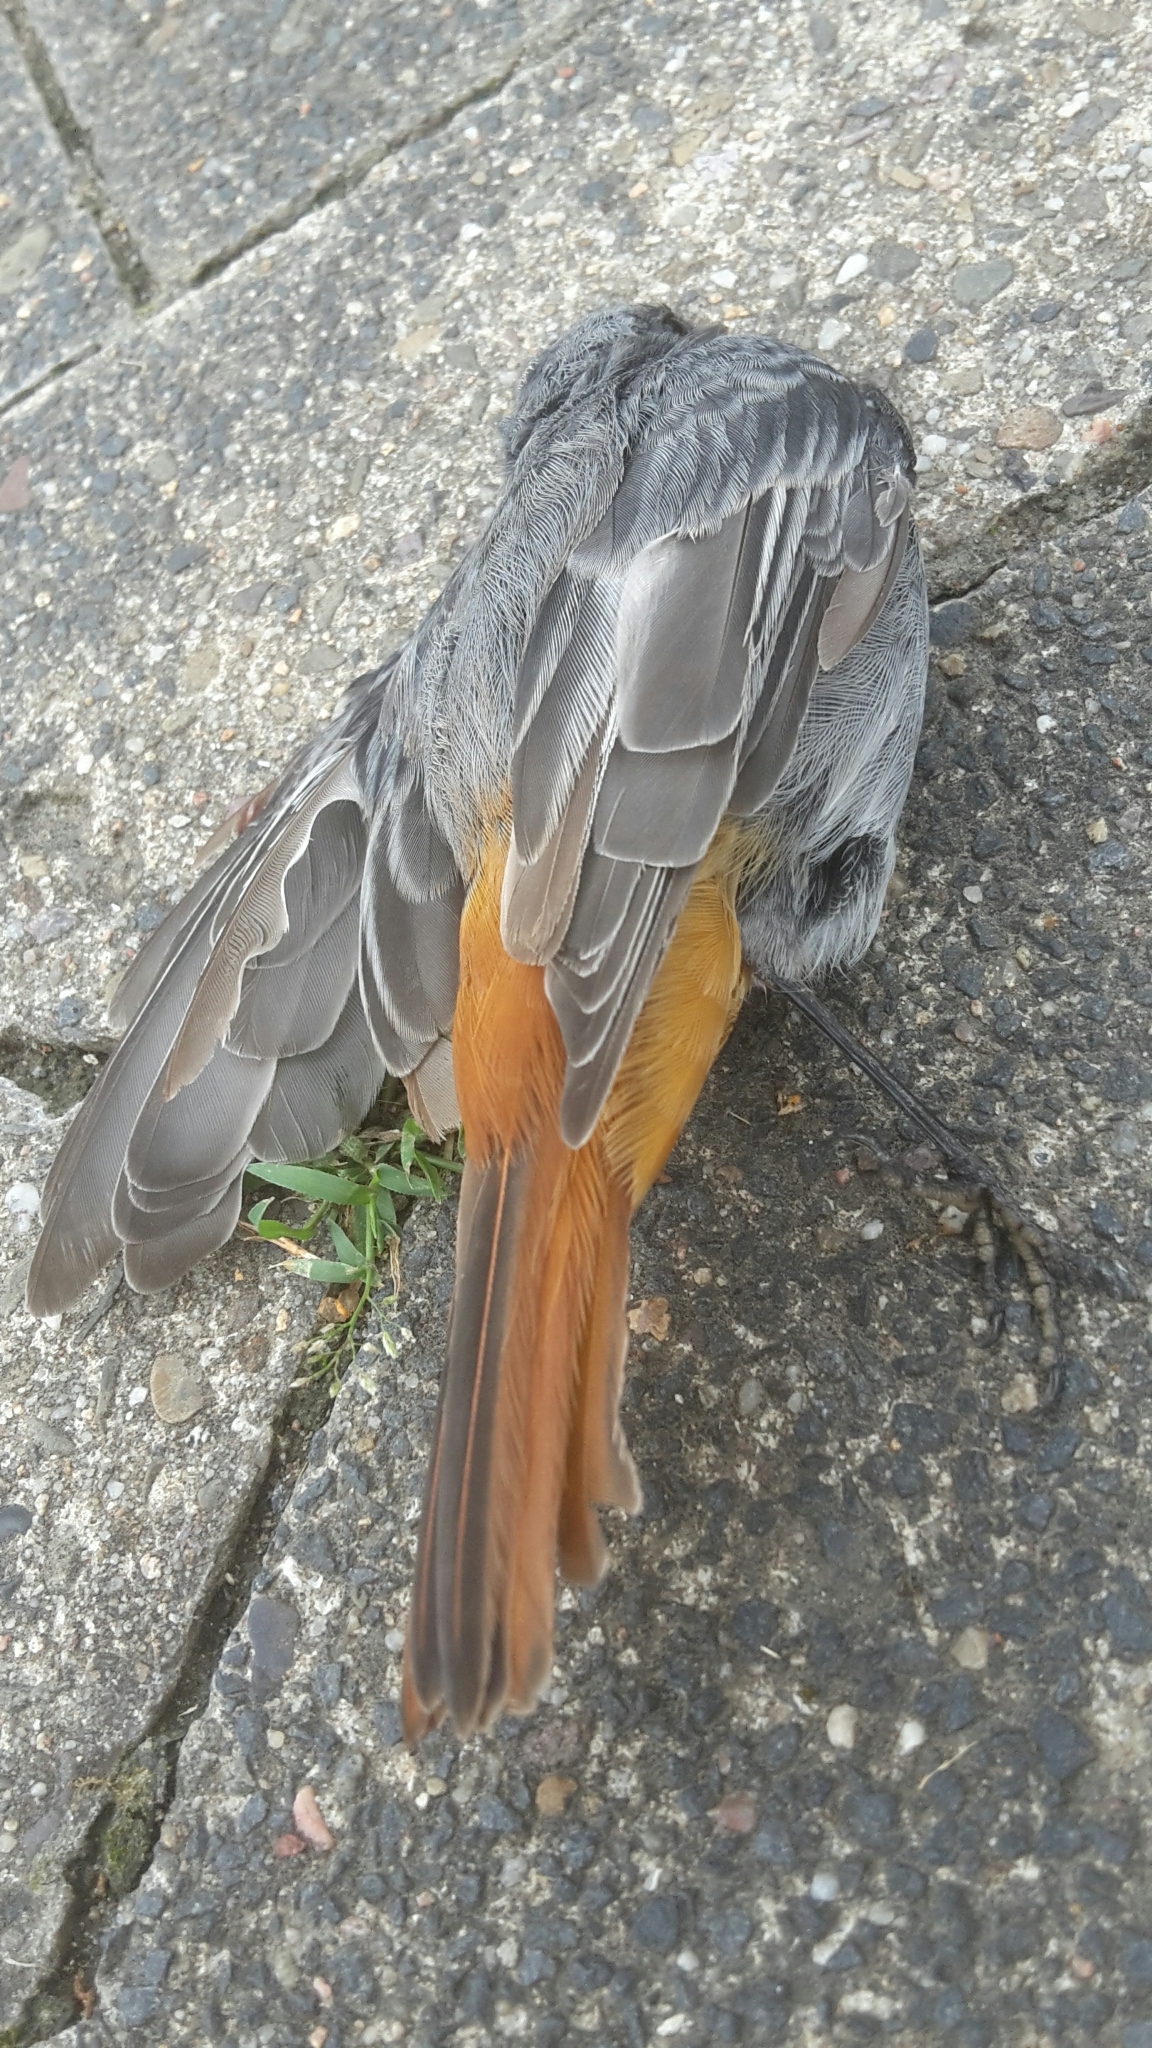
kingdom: Animalia
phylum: Chordata
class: Aves
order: Passeriformes
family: Muscicapidae
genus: Phoenicurus
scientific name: Phoenicurus ochruros
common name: Black redstart
